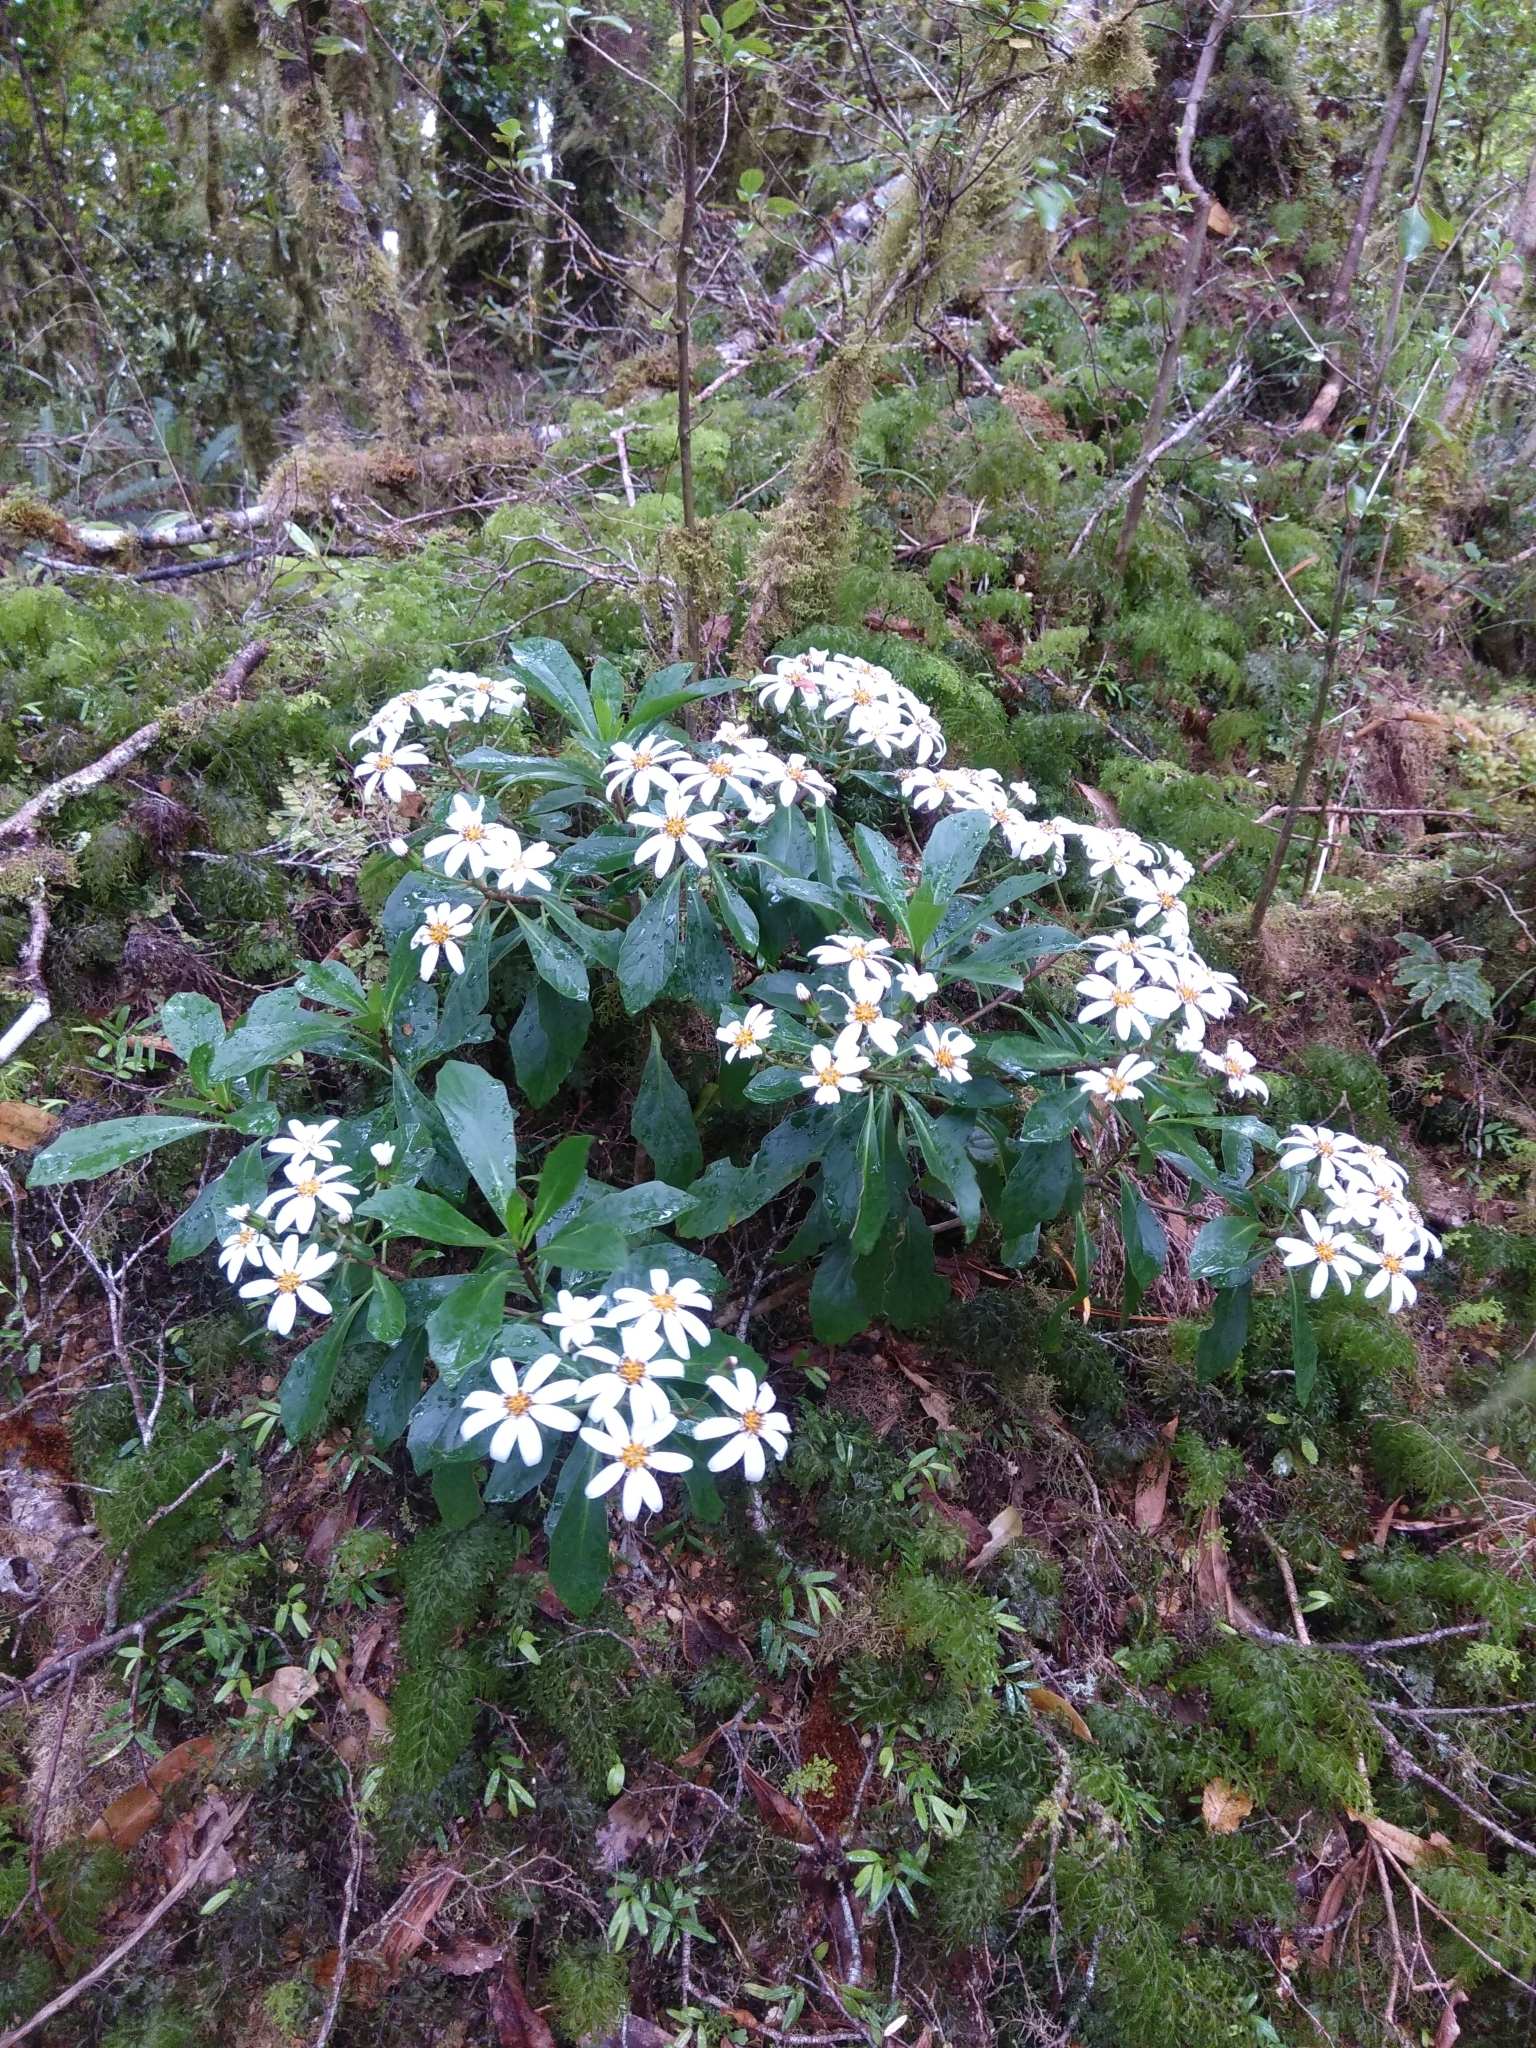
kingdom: Plantae
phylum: Tracheophyta
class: Magnoliopsida
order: Asterales
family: Asteraceae
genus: Brachyglottis
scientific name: Brachyglottis kirkii
